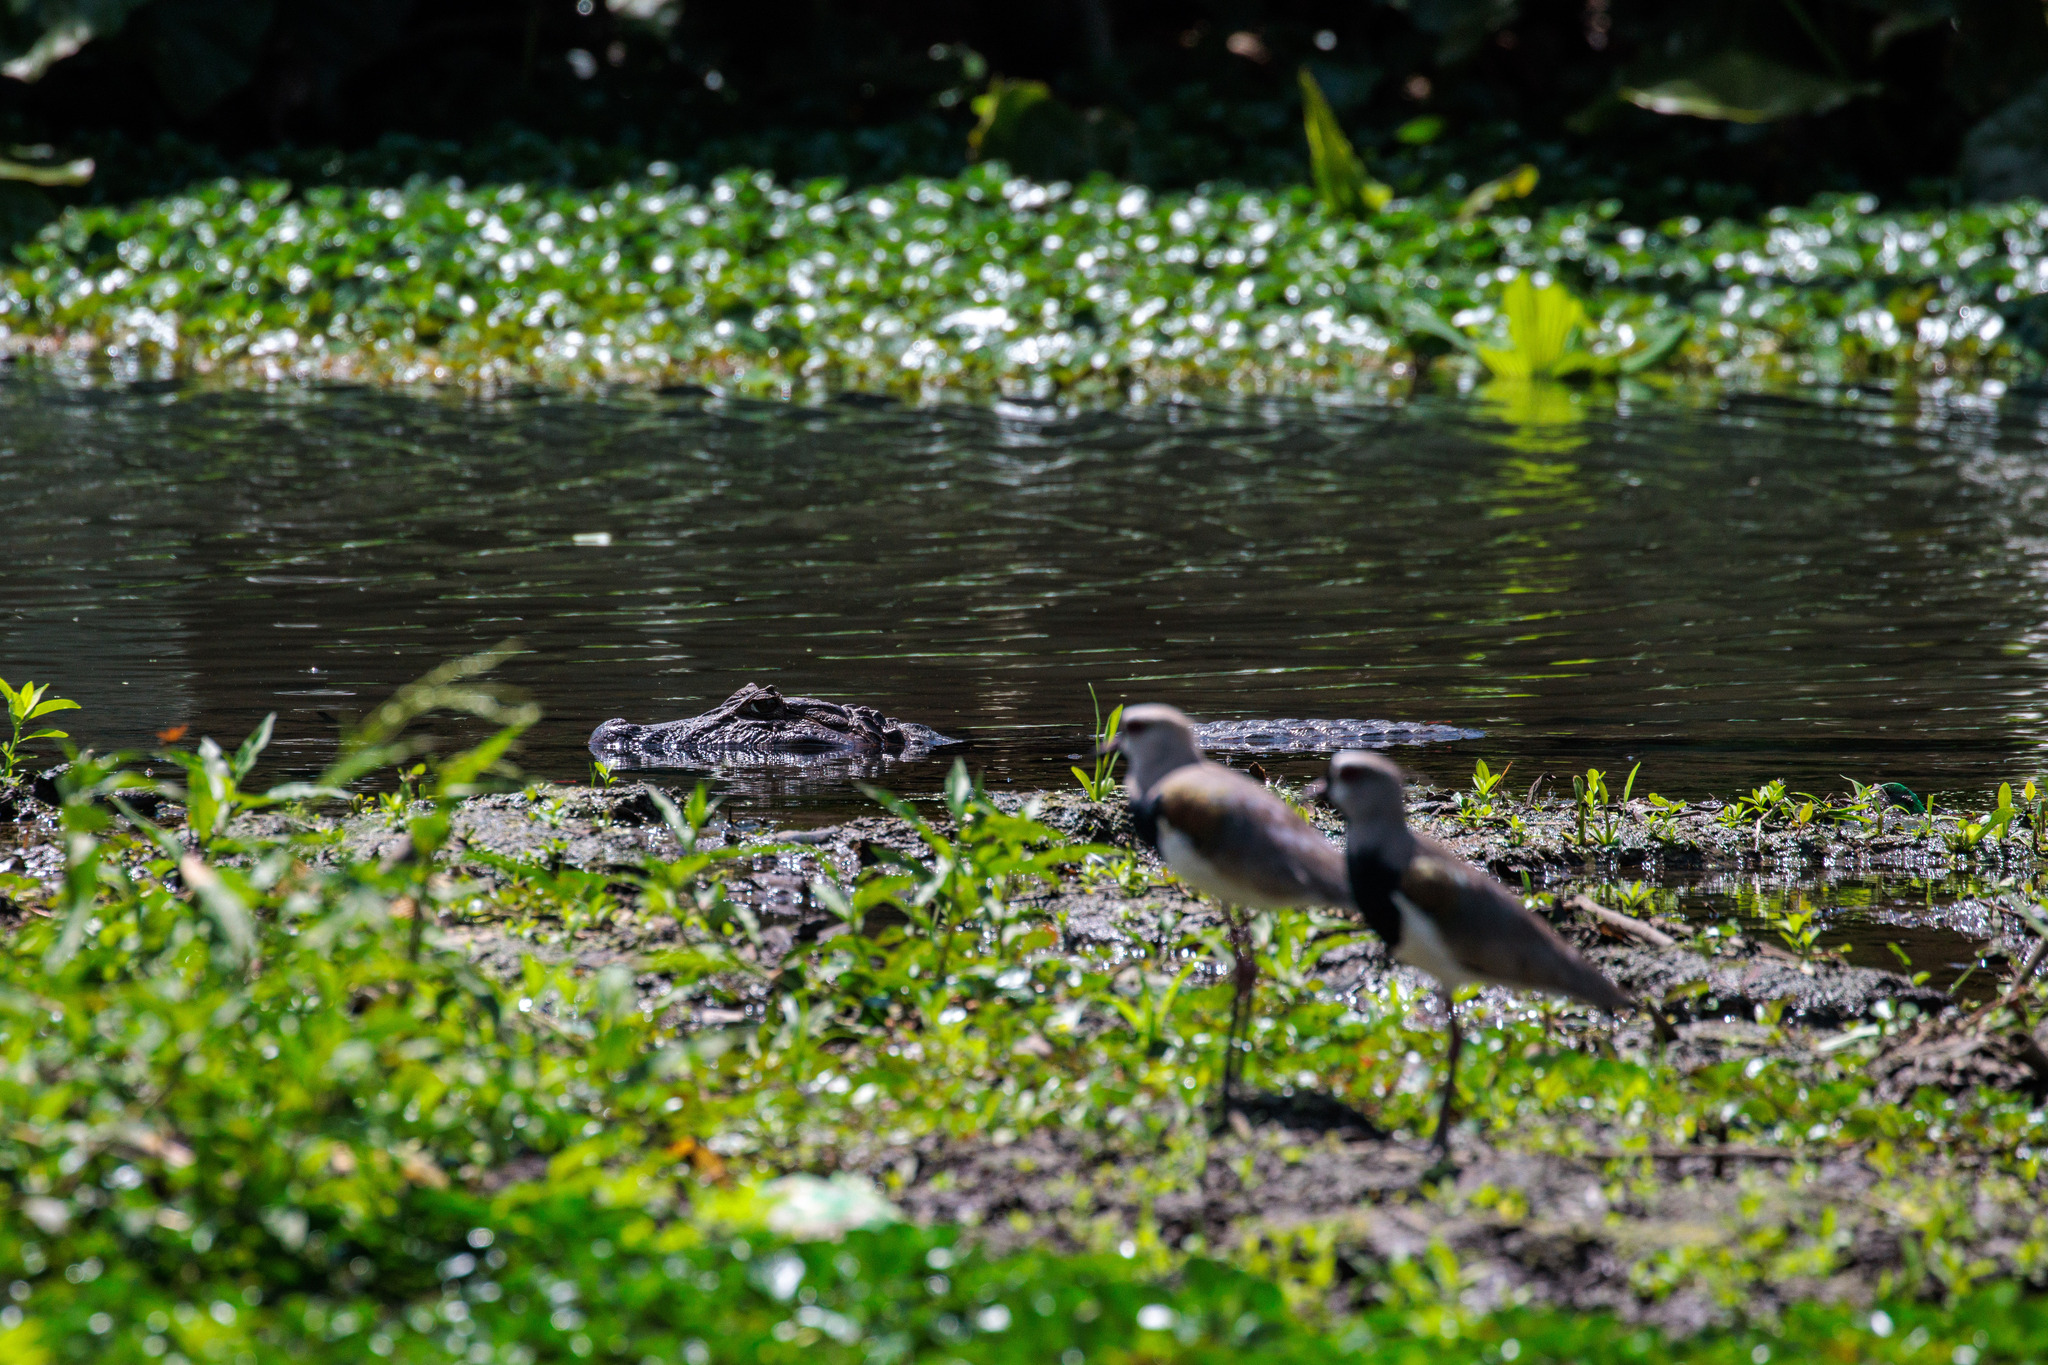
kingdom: Animalia
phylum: Chordata
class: Crocodylia
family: Alligatoridae
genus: Caiman
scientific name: Caiman latirostris
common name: Broad-snouted caiman
